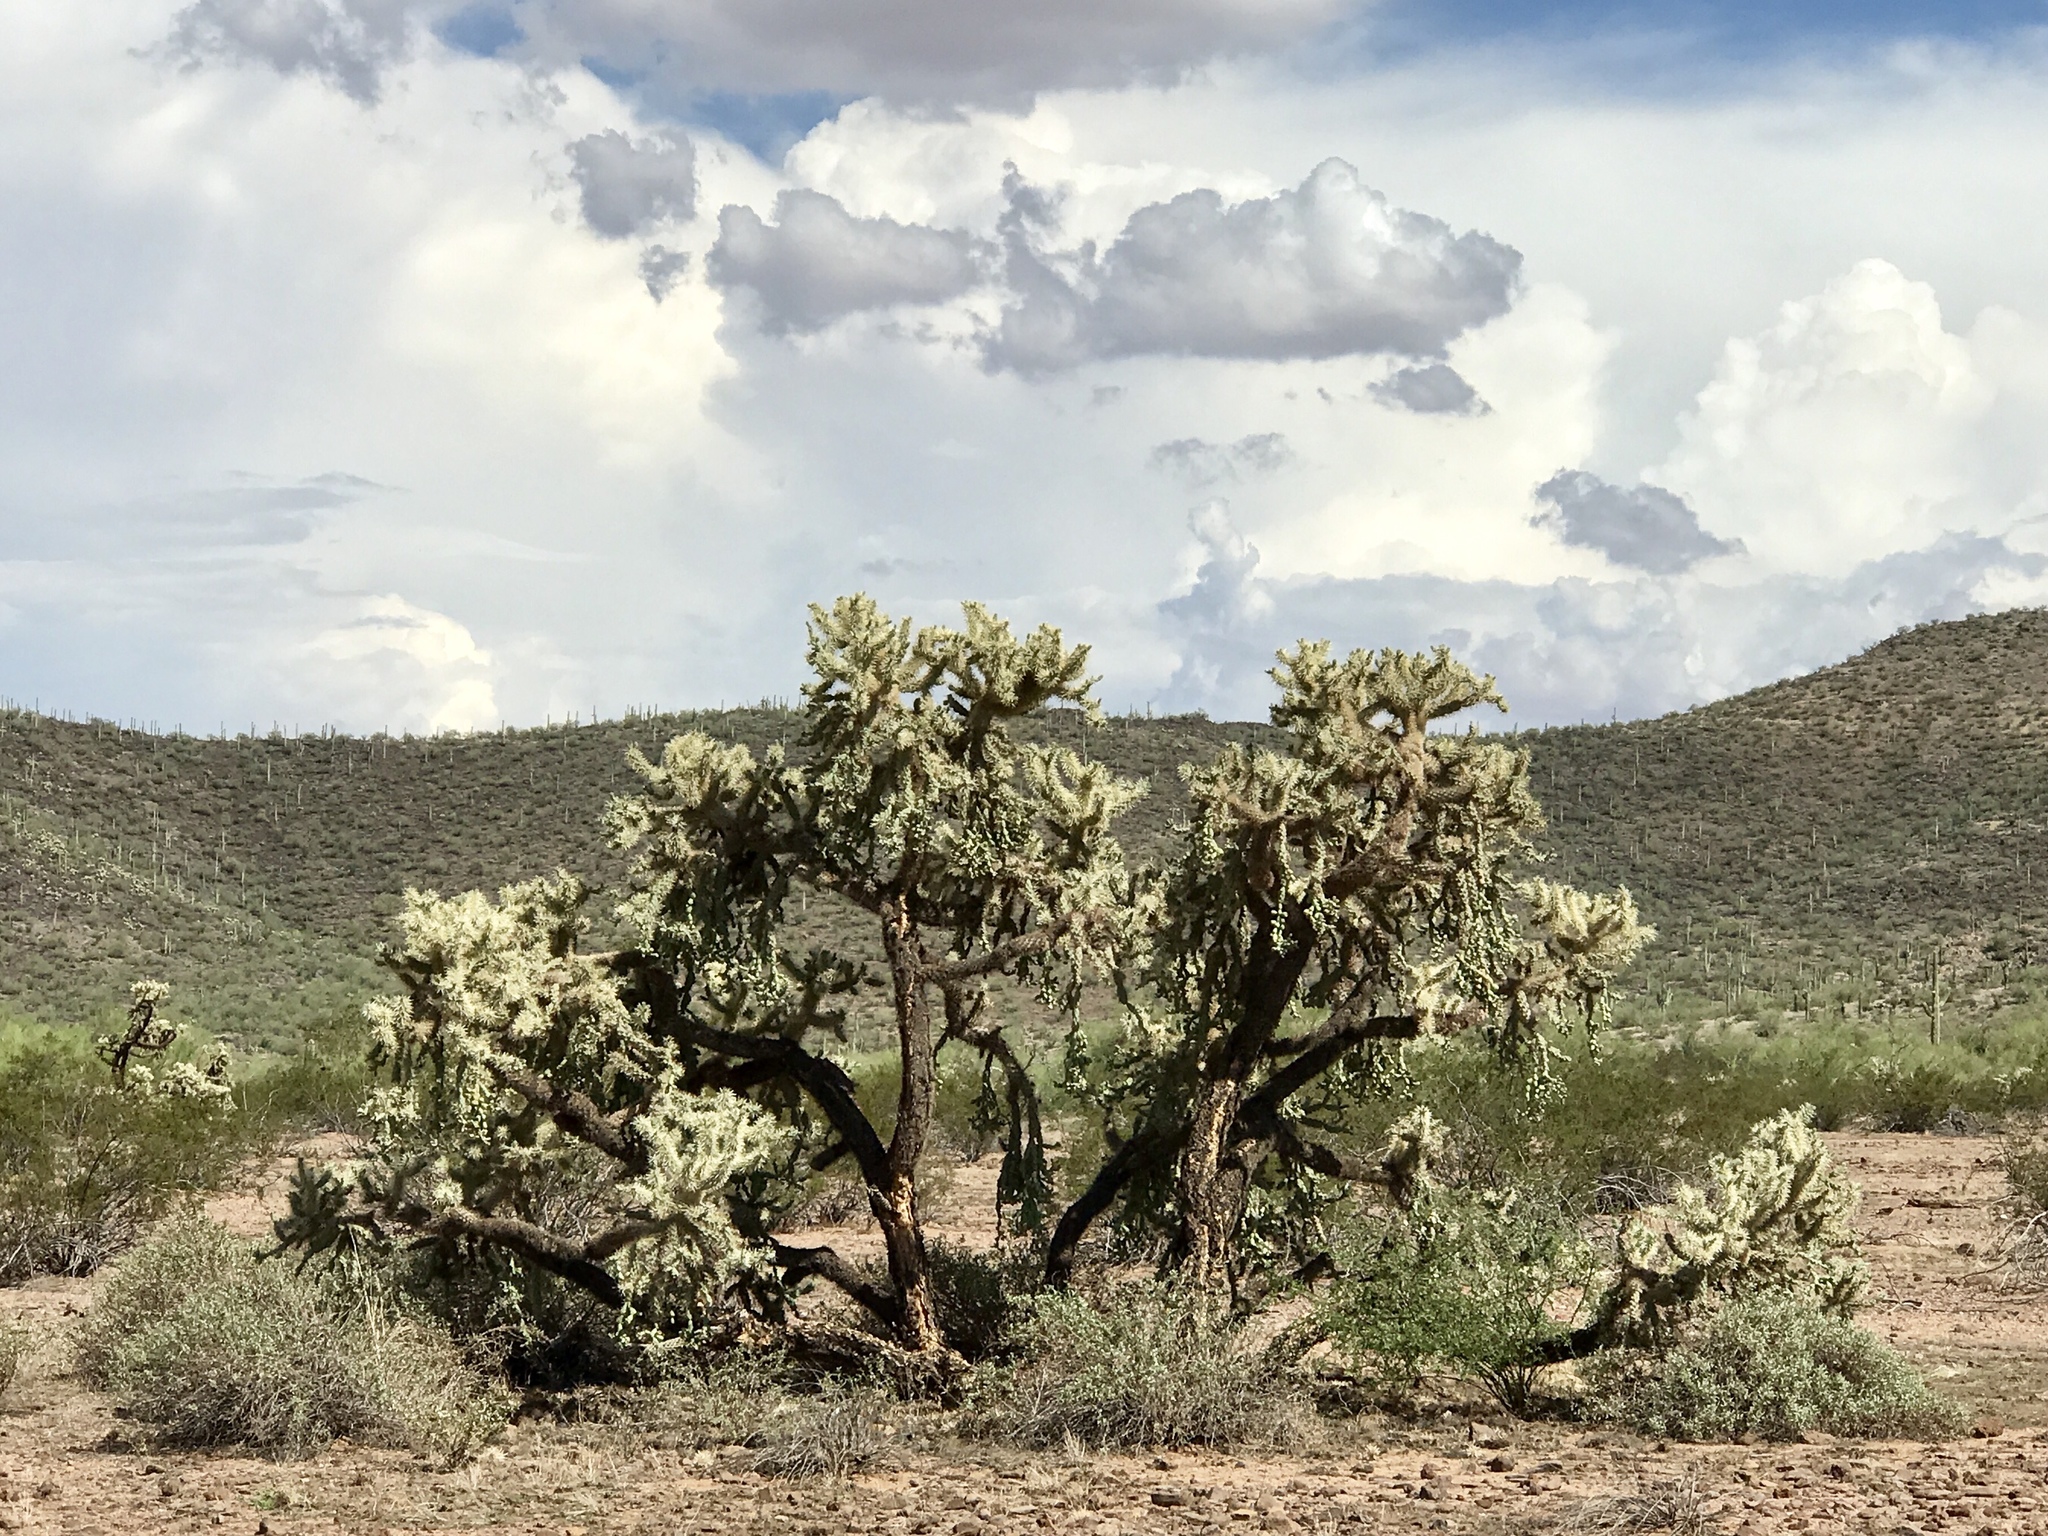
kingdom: Plantae
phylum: Tracheophyta
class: Magnoliopsida
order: Caryophyllales
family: Cactaceae
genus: Cylindropuntia
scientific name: Cylindropuntia fulgida
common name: Jumping cholla
